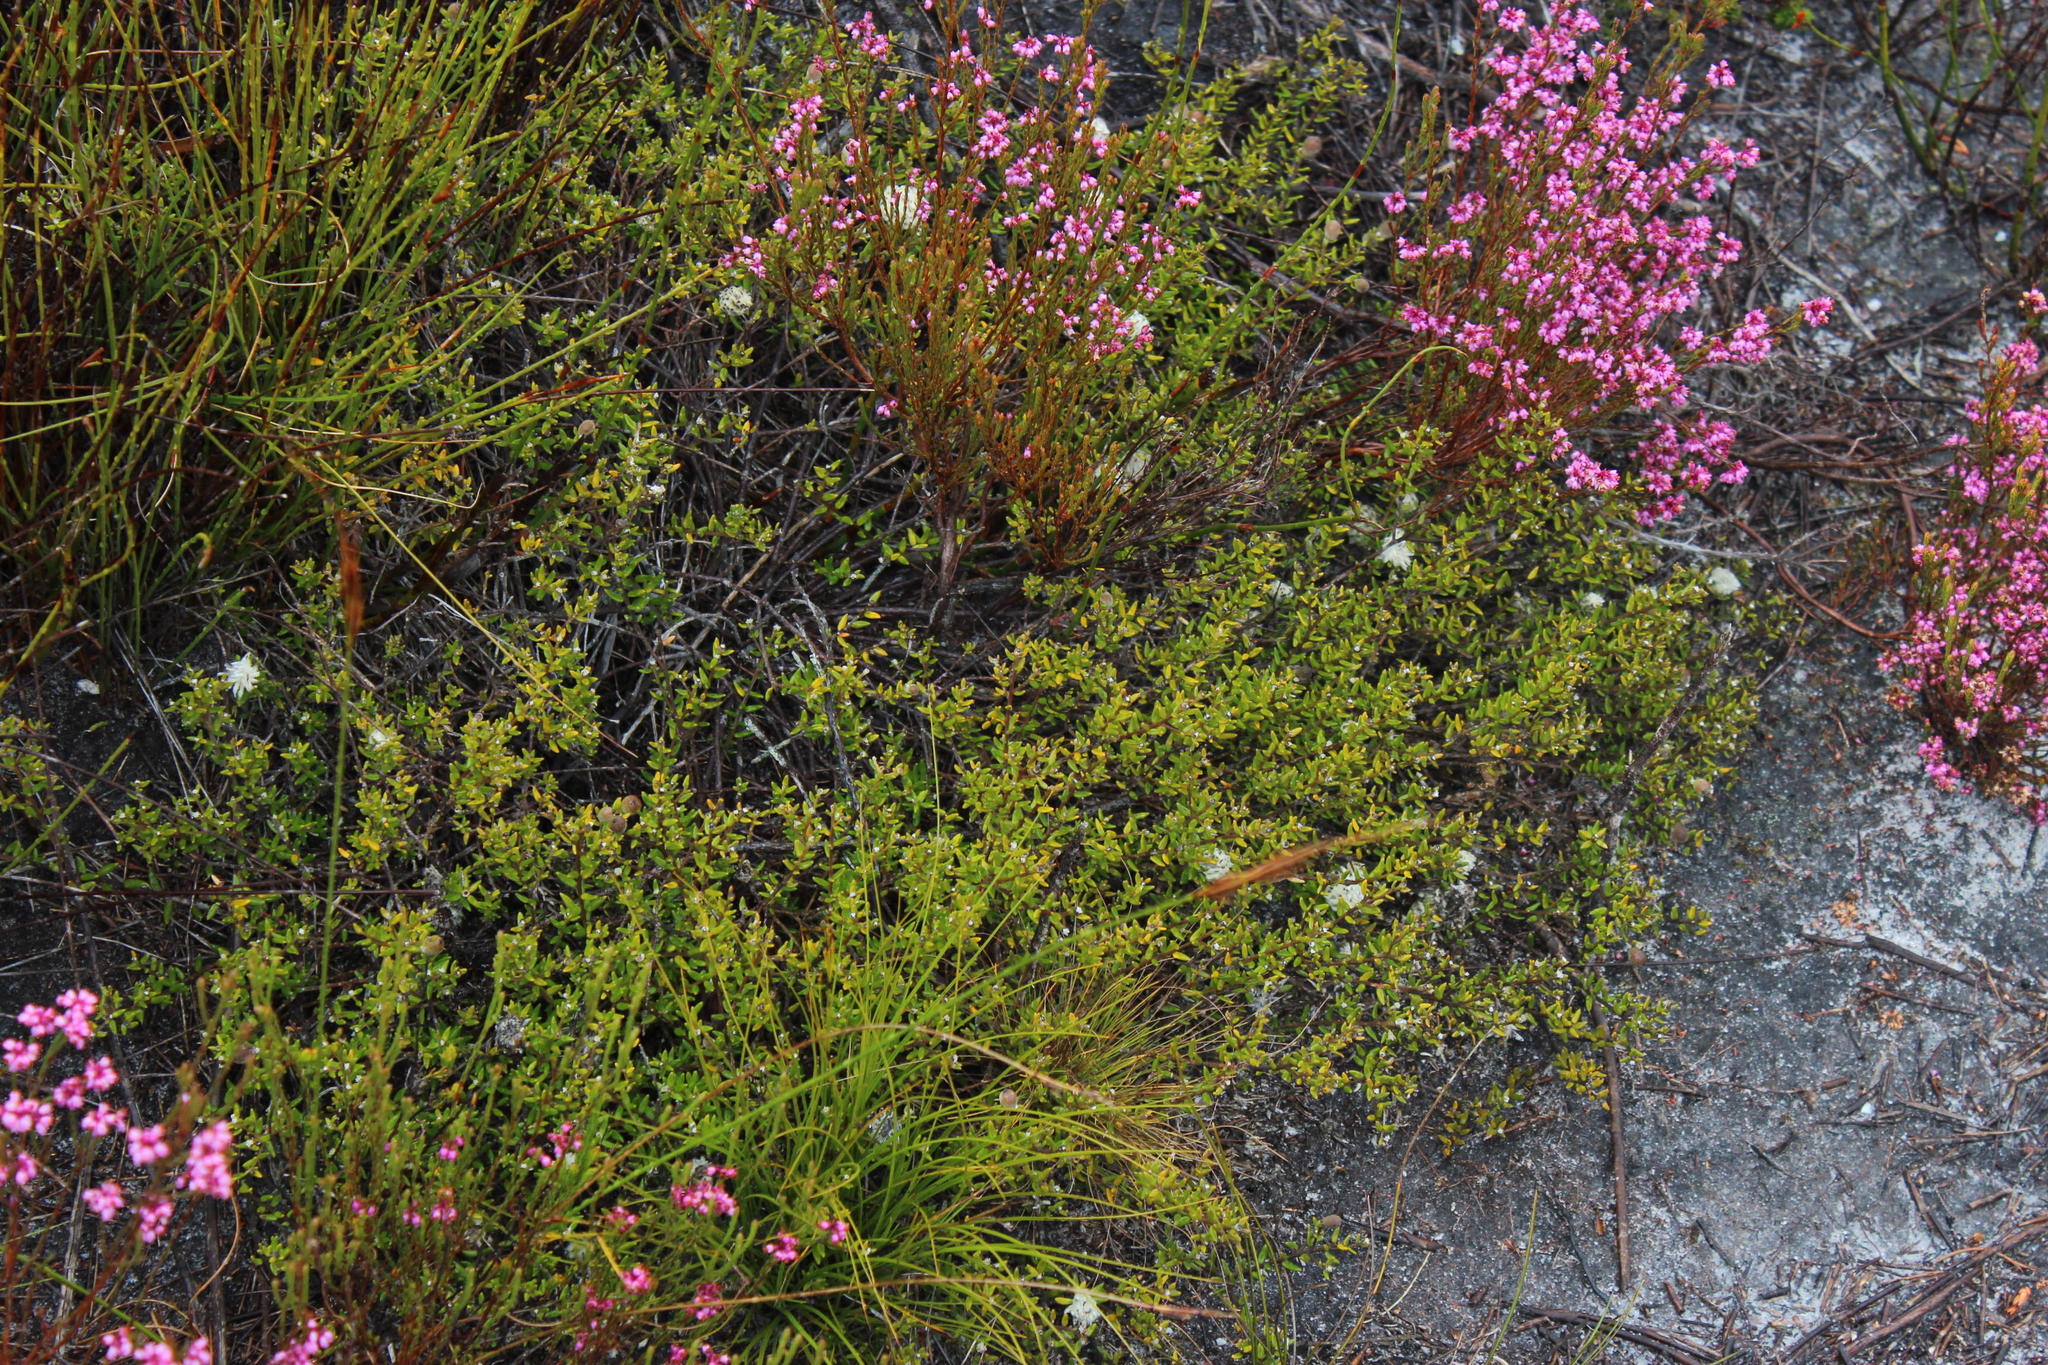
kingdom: Plantae
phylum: Tracheophyta
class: Magnoliopsida
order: Rosales
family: Rhamnaceae
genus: Phylica
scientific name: Phylica lasiocarpa
